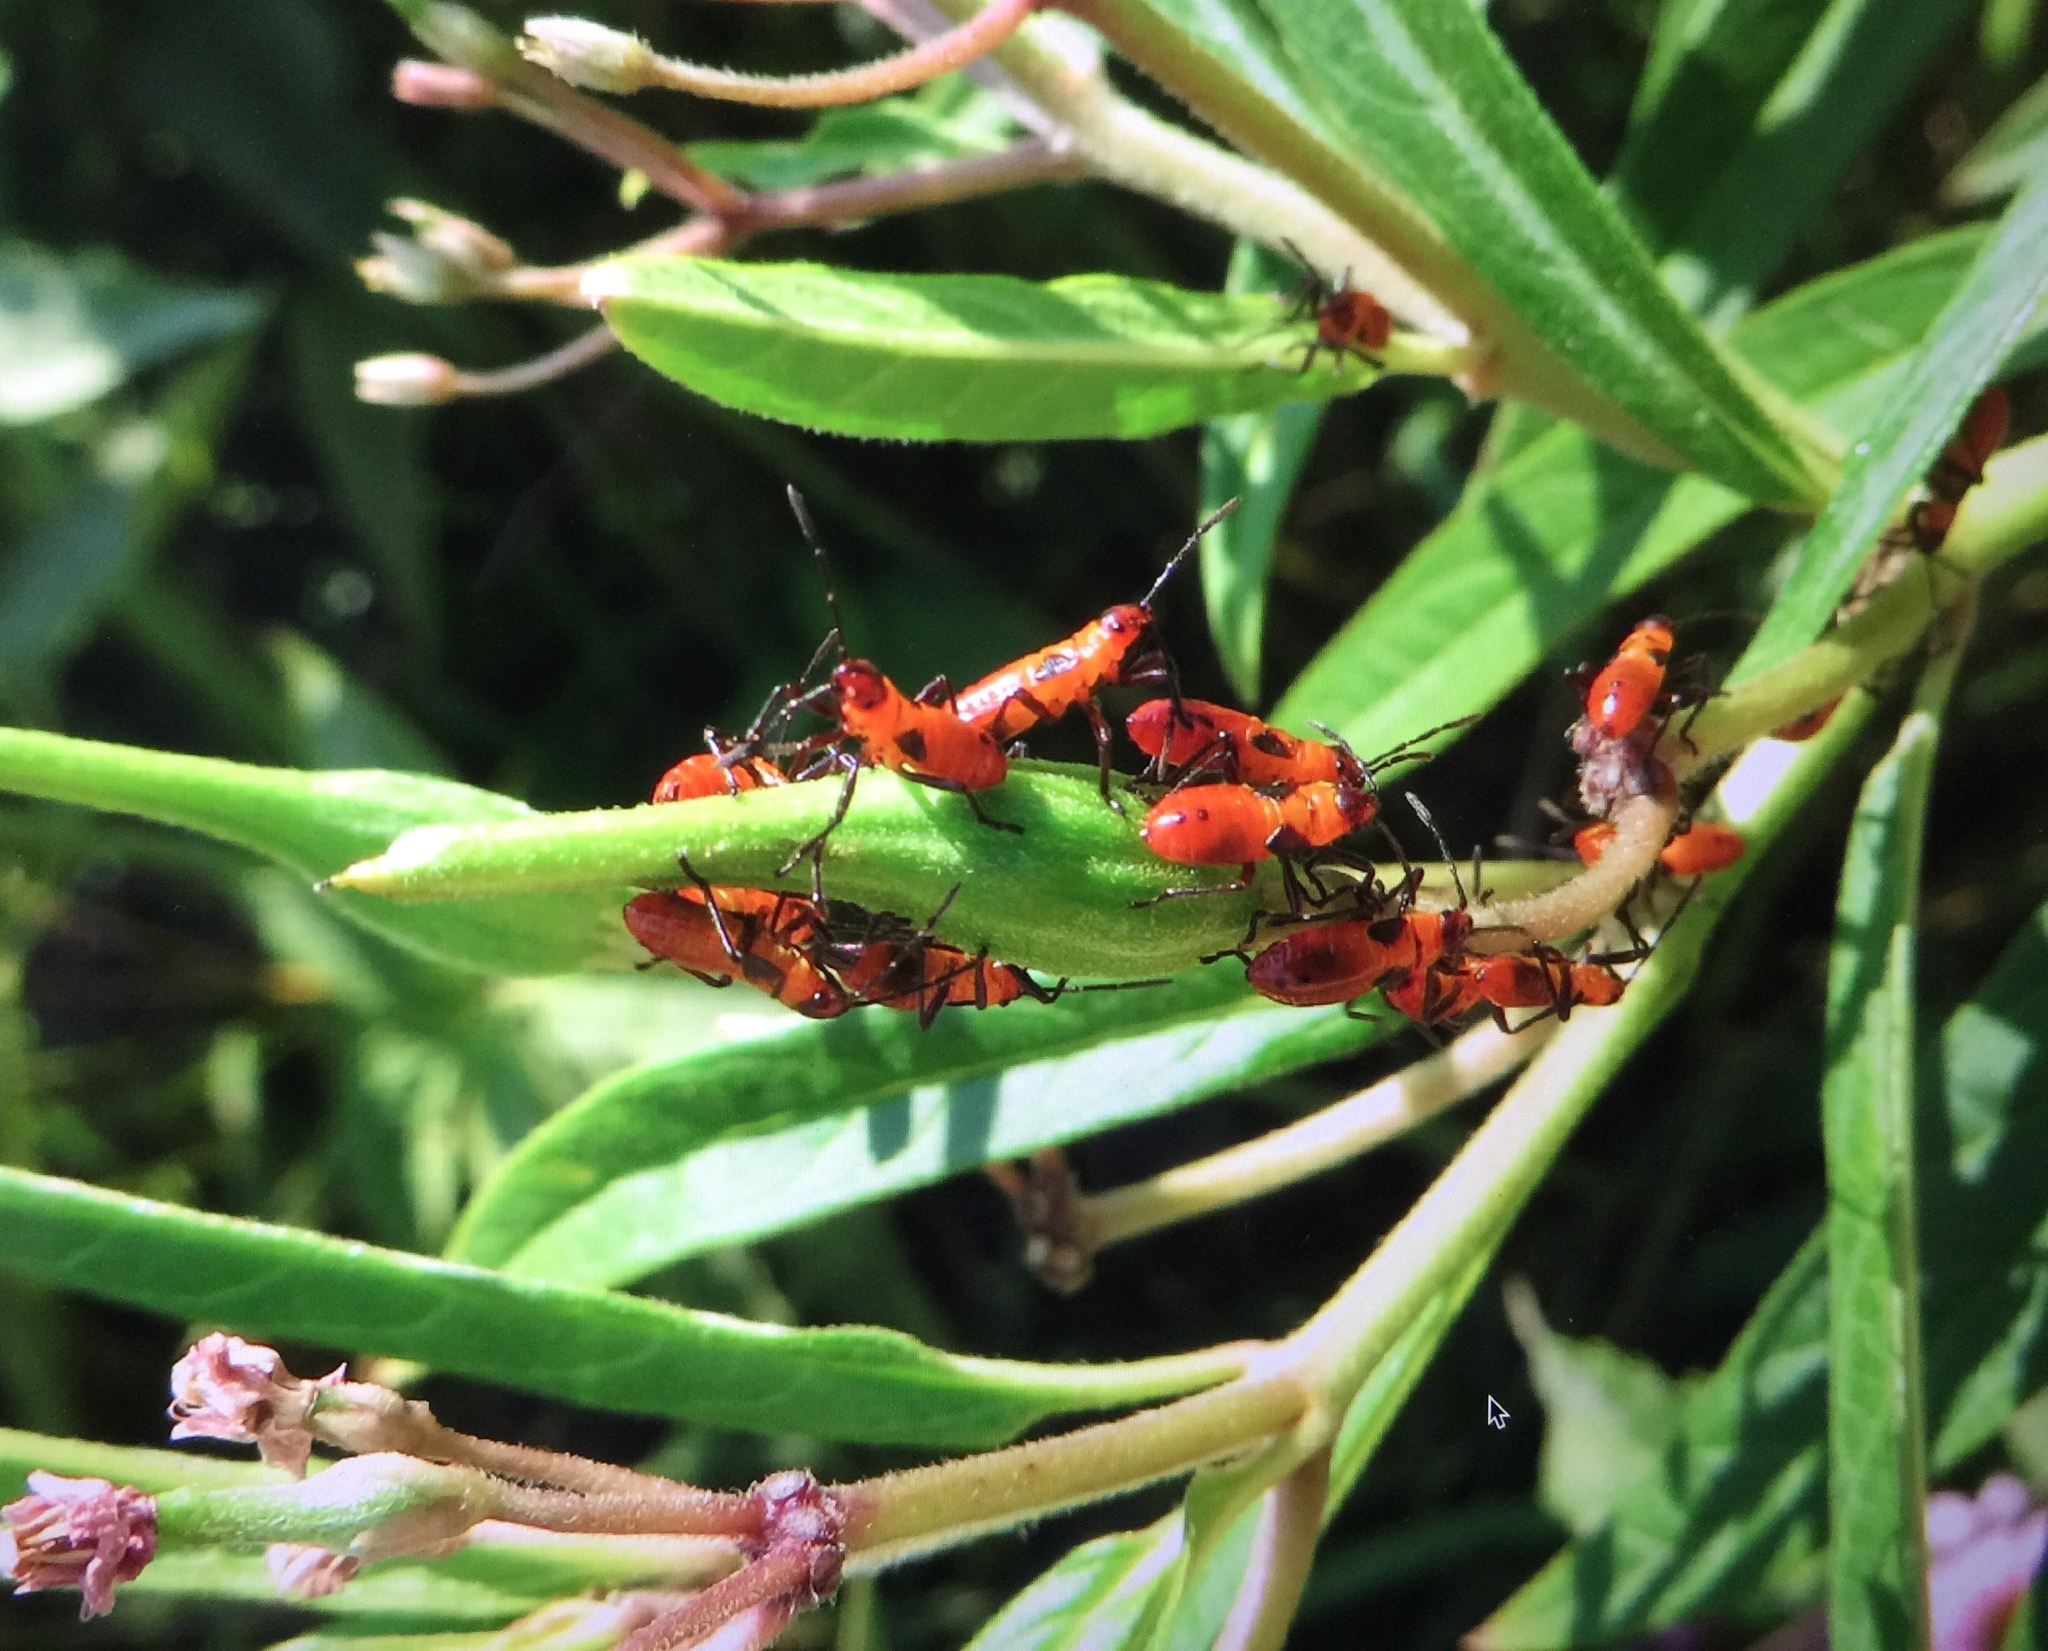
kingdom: Animalia
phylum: Arthropoda
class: Insecta
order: Hemiptera
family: Lygaeidae
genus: Oncopeltus
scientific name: Oncopeltus fasciatus
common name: Large milkweed bug
